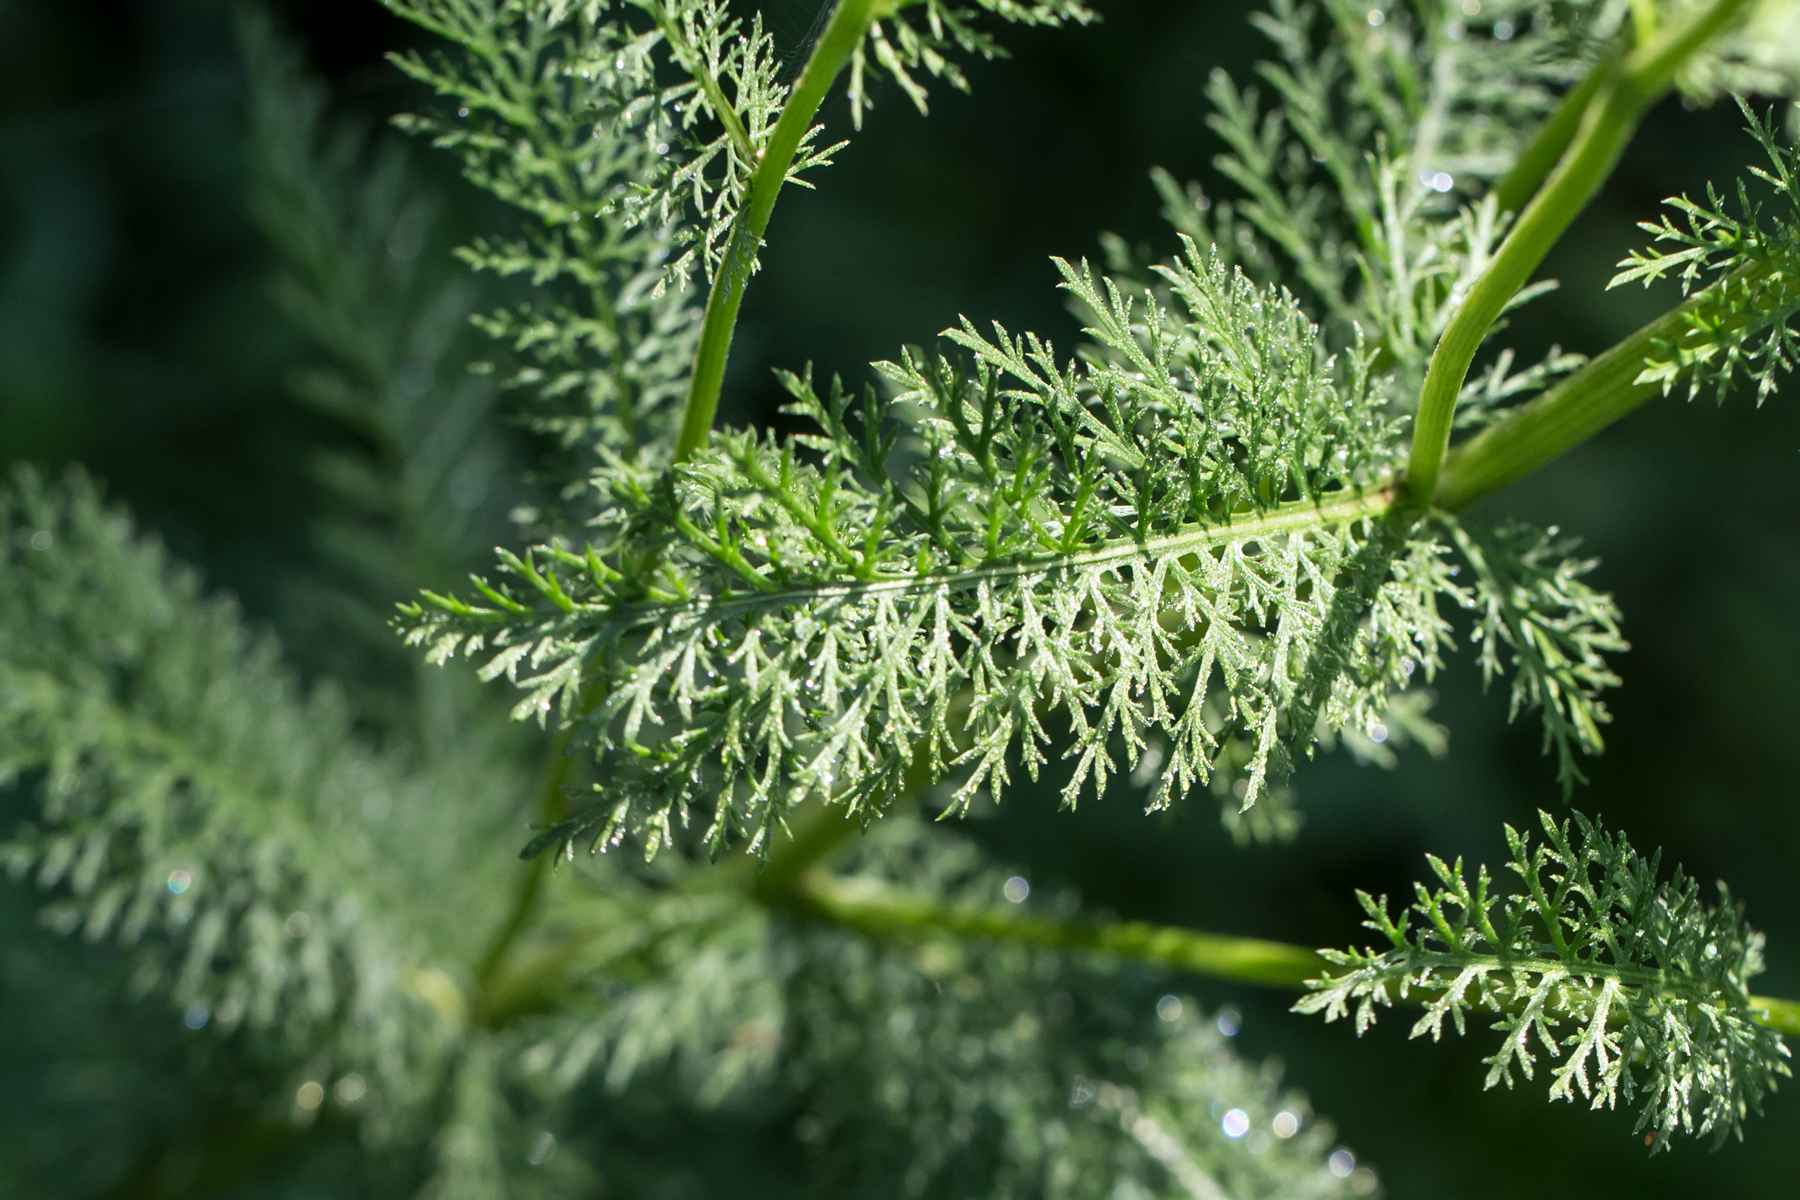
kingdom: Plantae
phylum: Tracheophyta
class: Magnoliopsida
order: Asterales
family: Asteraceae
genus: Achillea
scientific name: Achillea millefolium
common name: Yarrow
